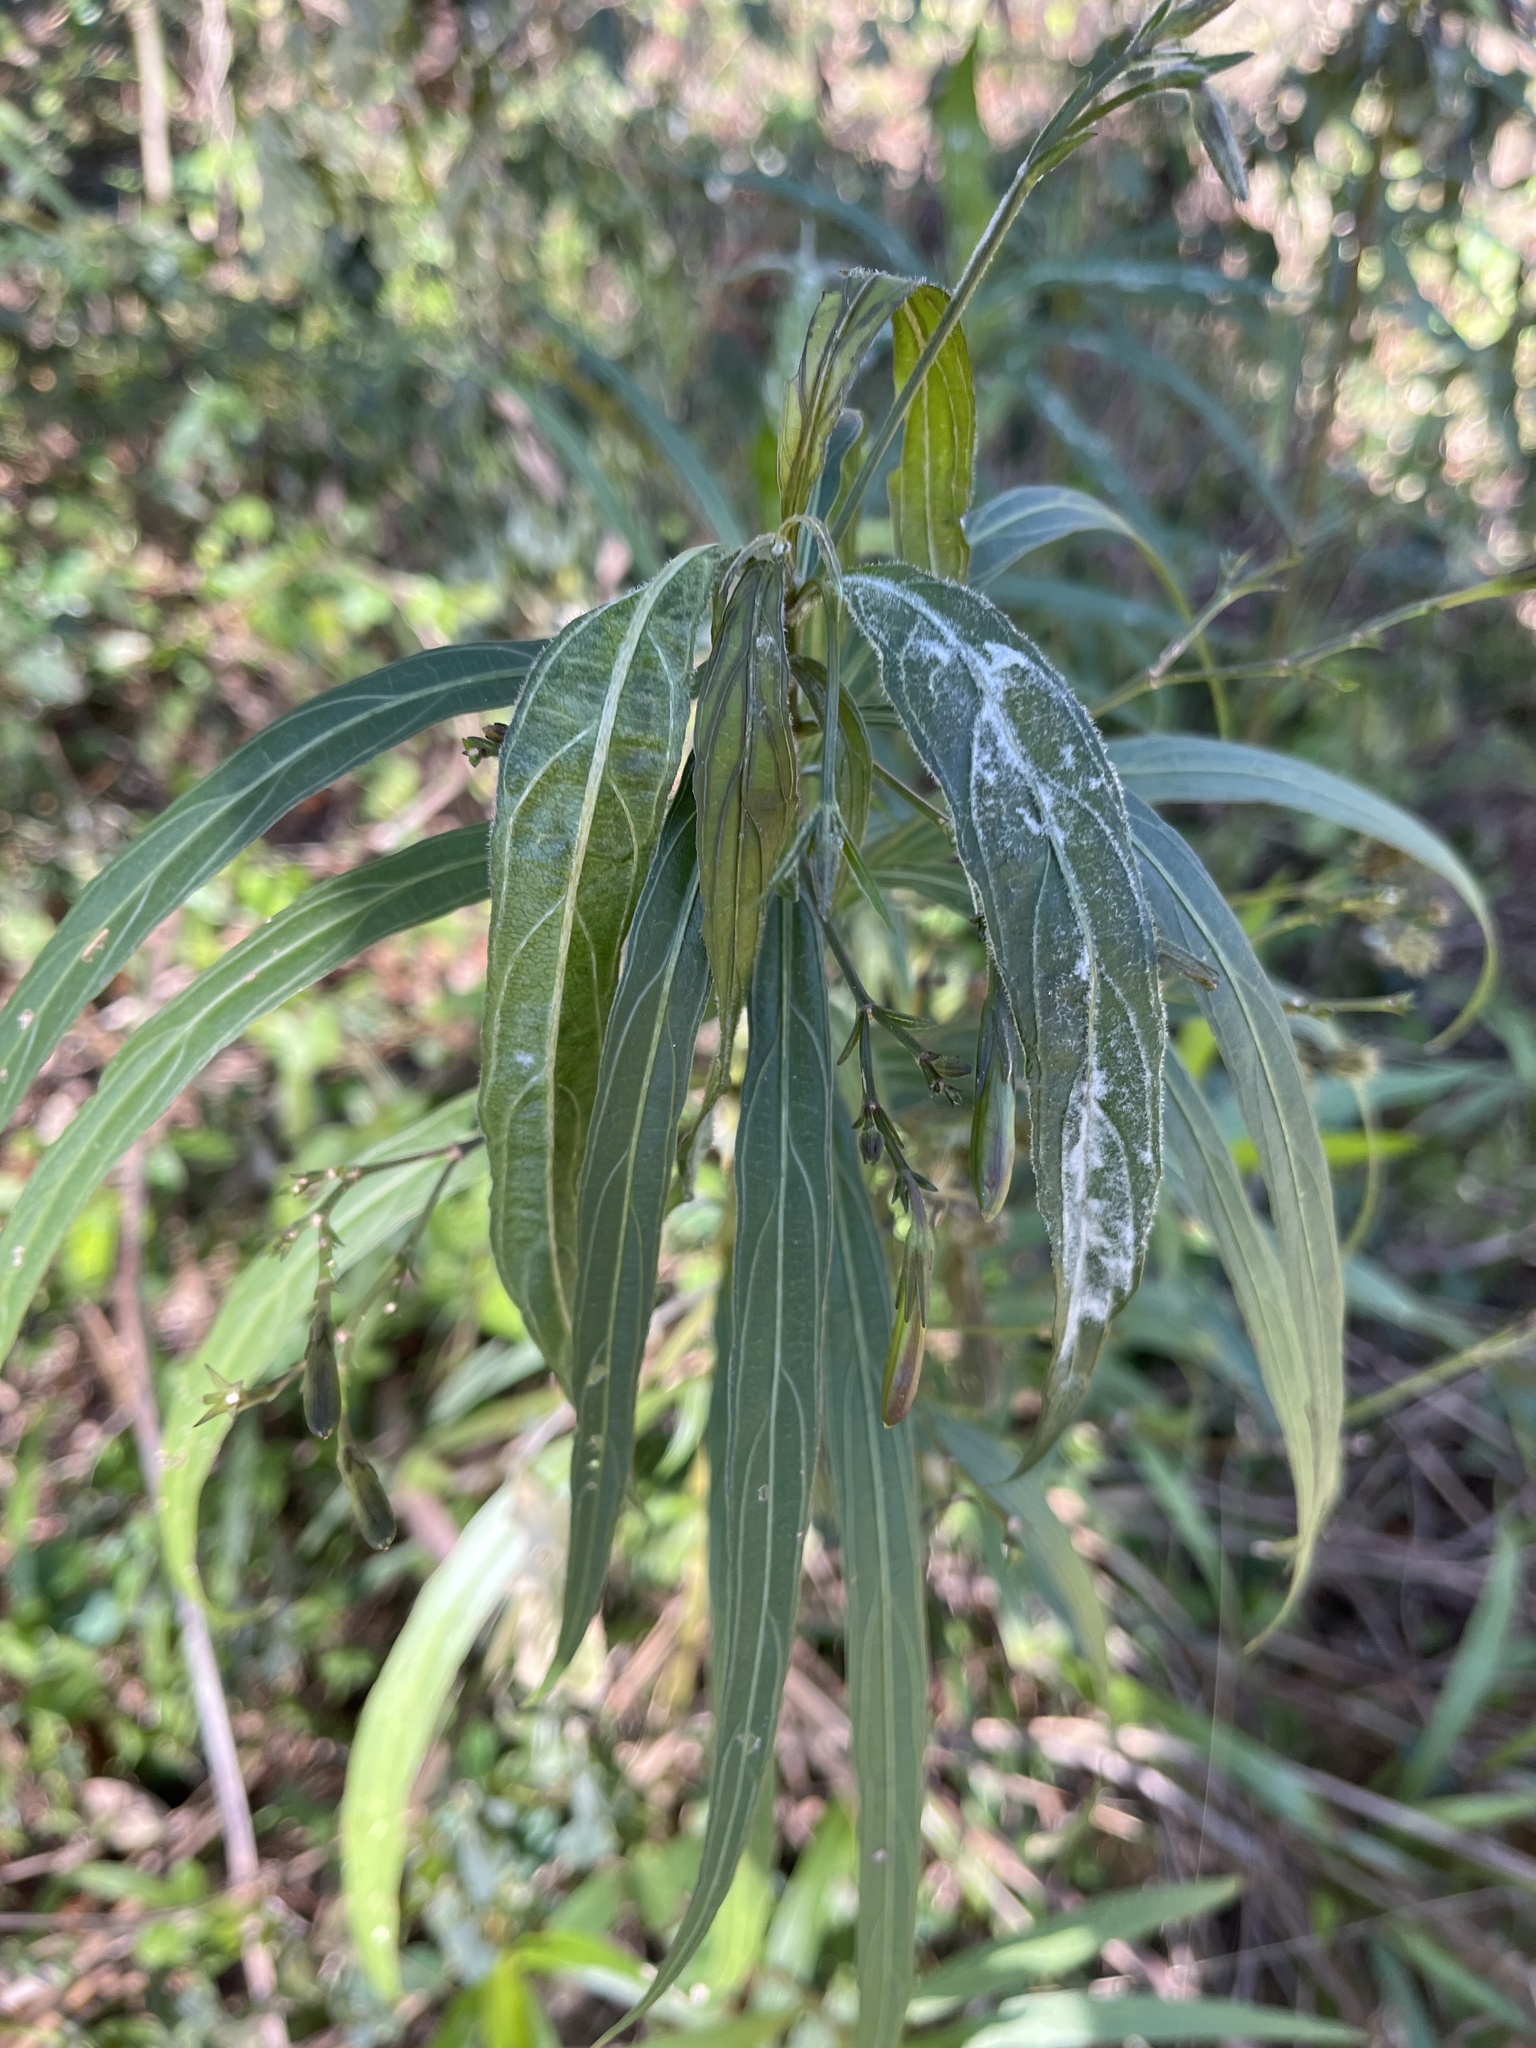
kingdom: Plantae
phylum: Tracheophyta
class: Magnoliopsida
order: Lamiales
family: Acanthaceae
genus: Ruellia
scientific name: Ruellia simplex
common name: Softseed wild petunia
